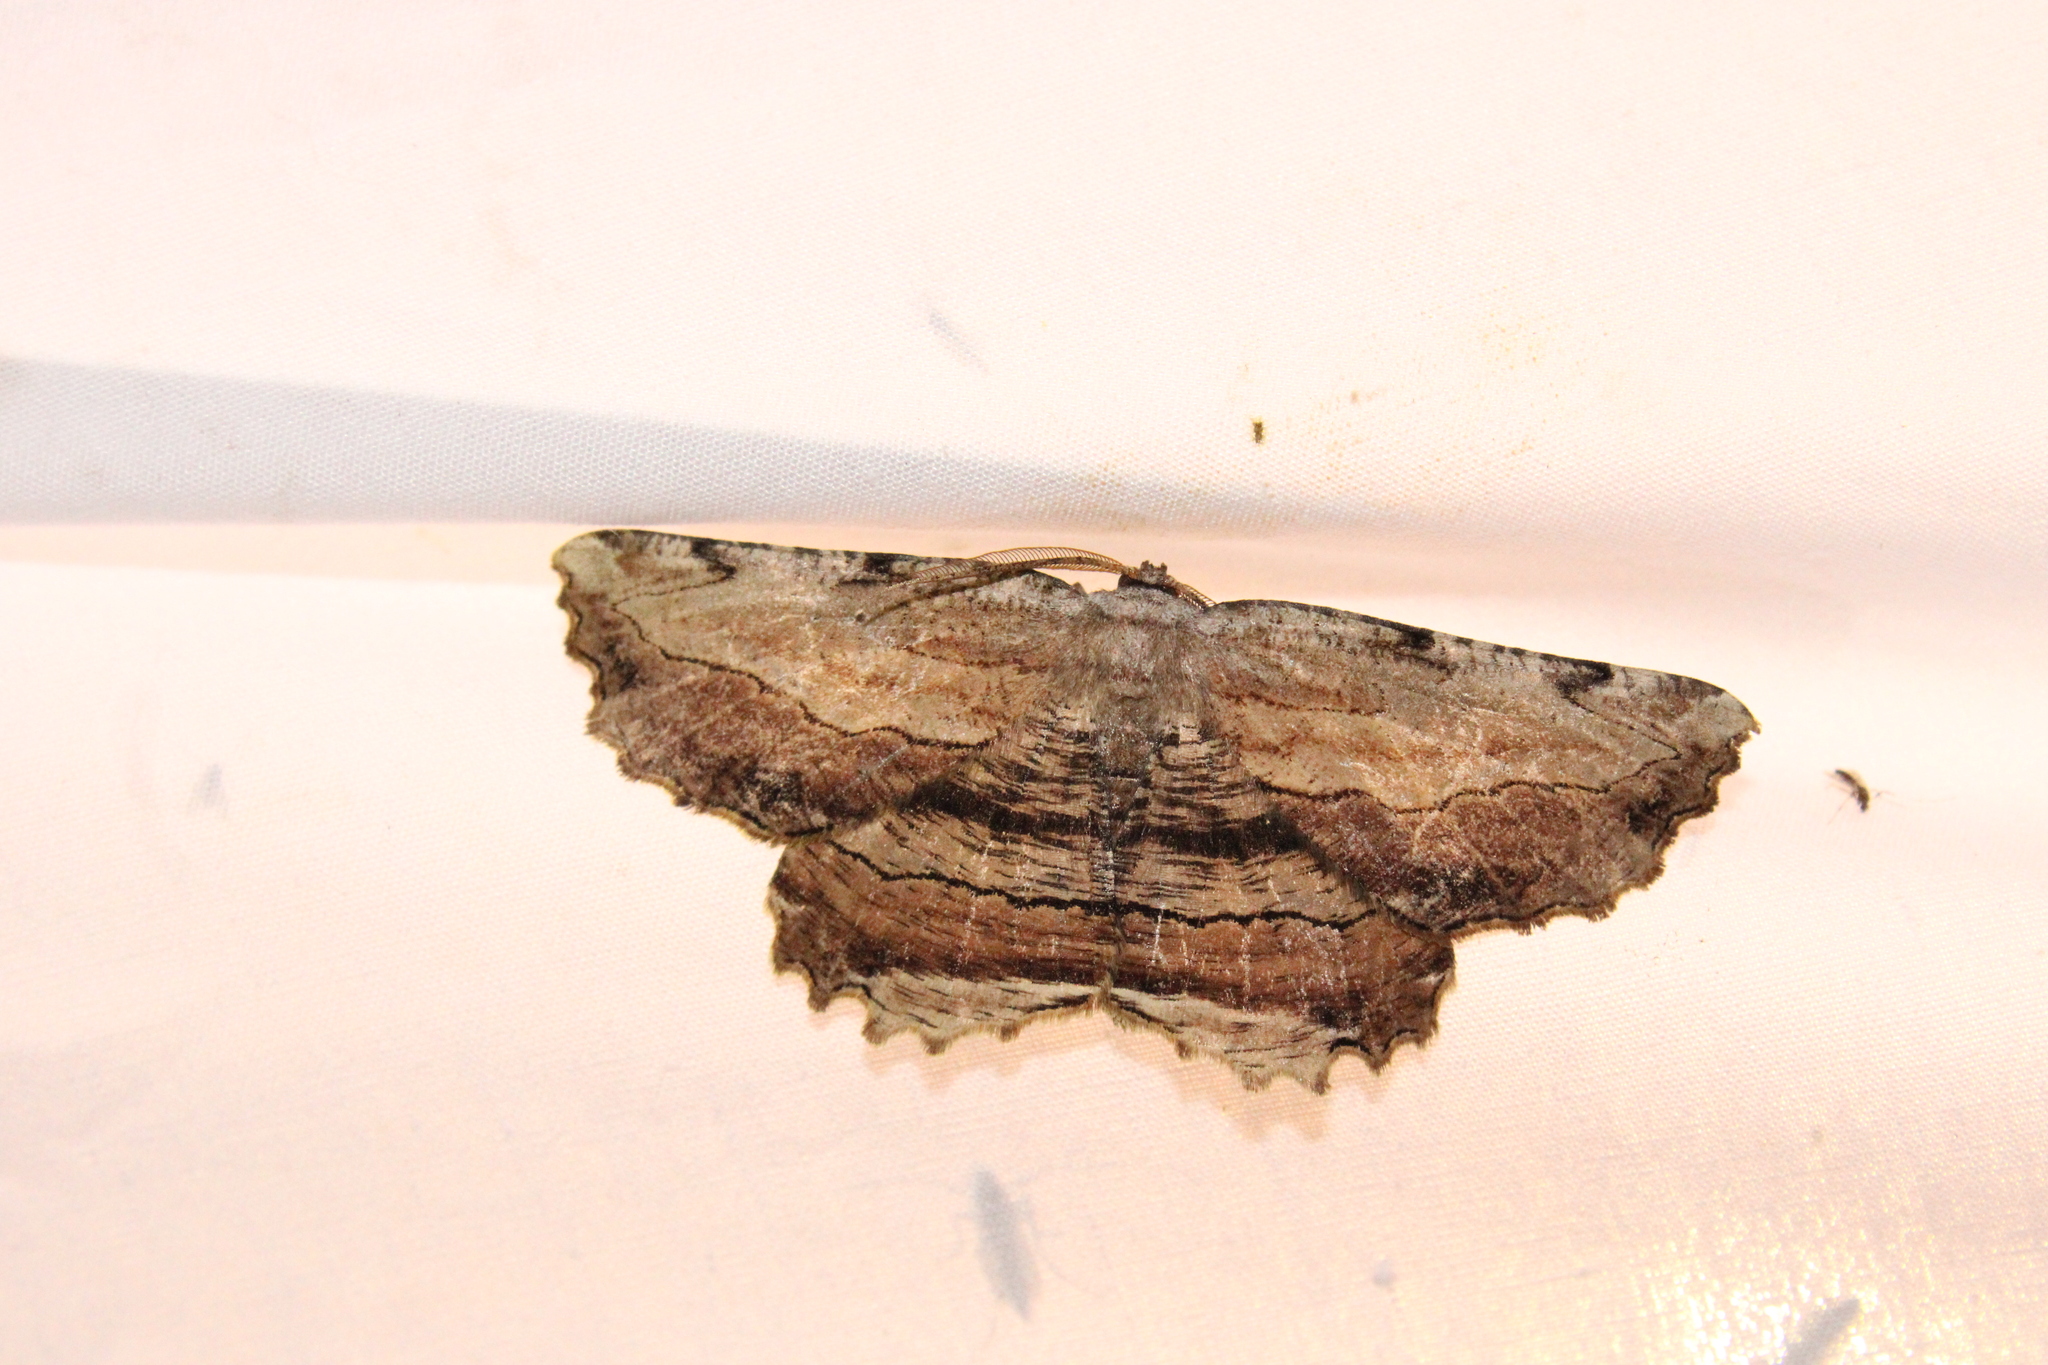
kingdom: Animalia
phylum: Arthropoda
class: Insecta
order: Lepidoptera
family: Geometridae
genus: Lytrosis
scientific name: Lytrosis unitaria
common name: Common lytrosis
